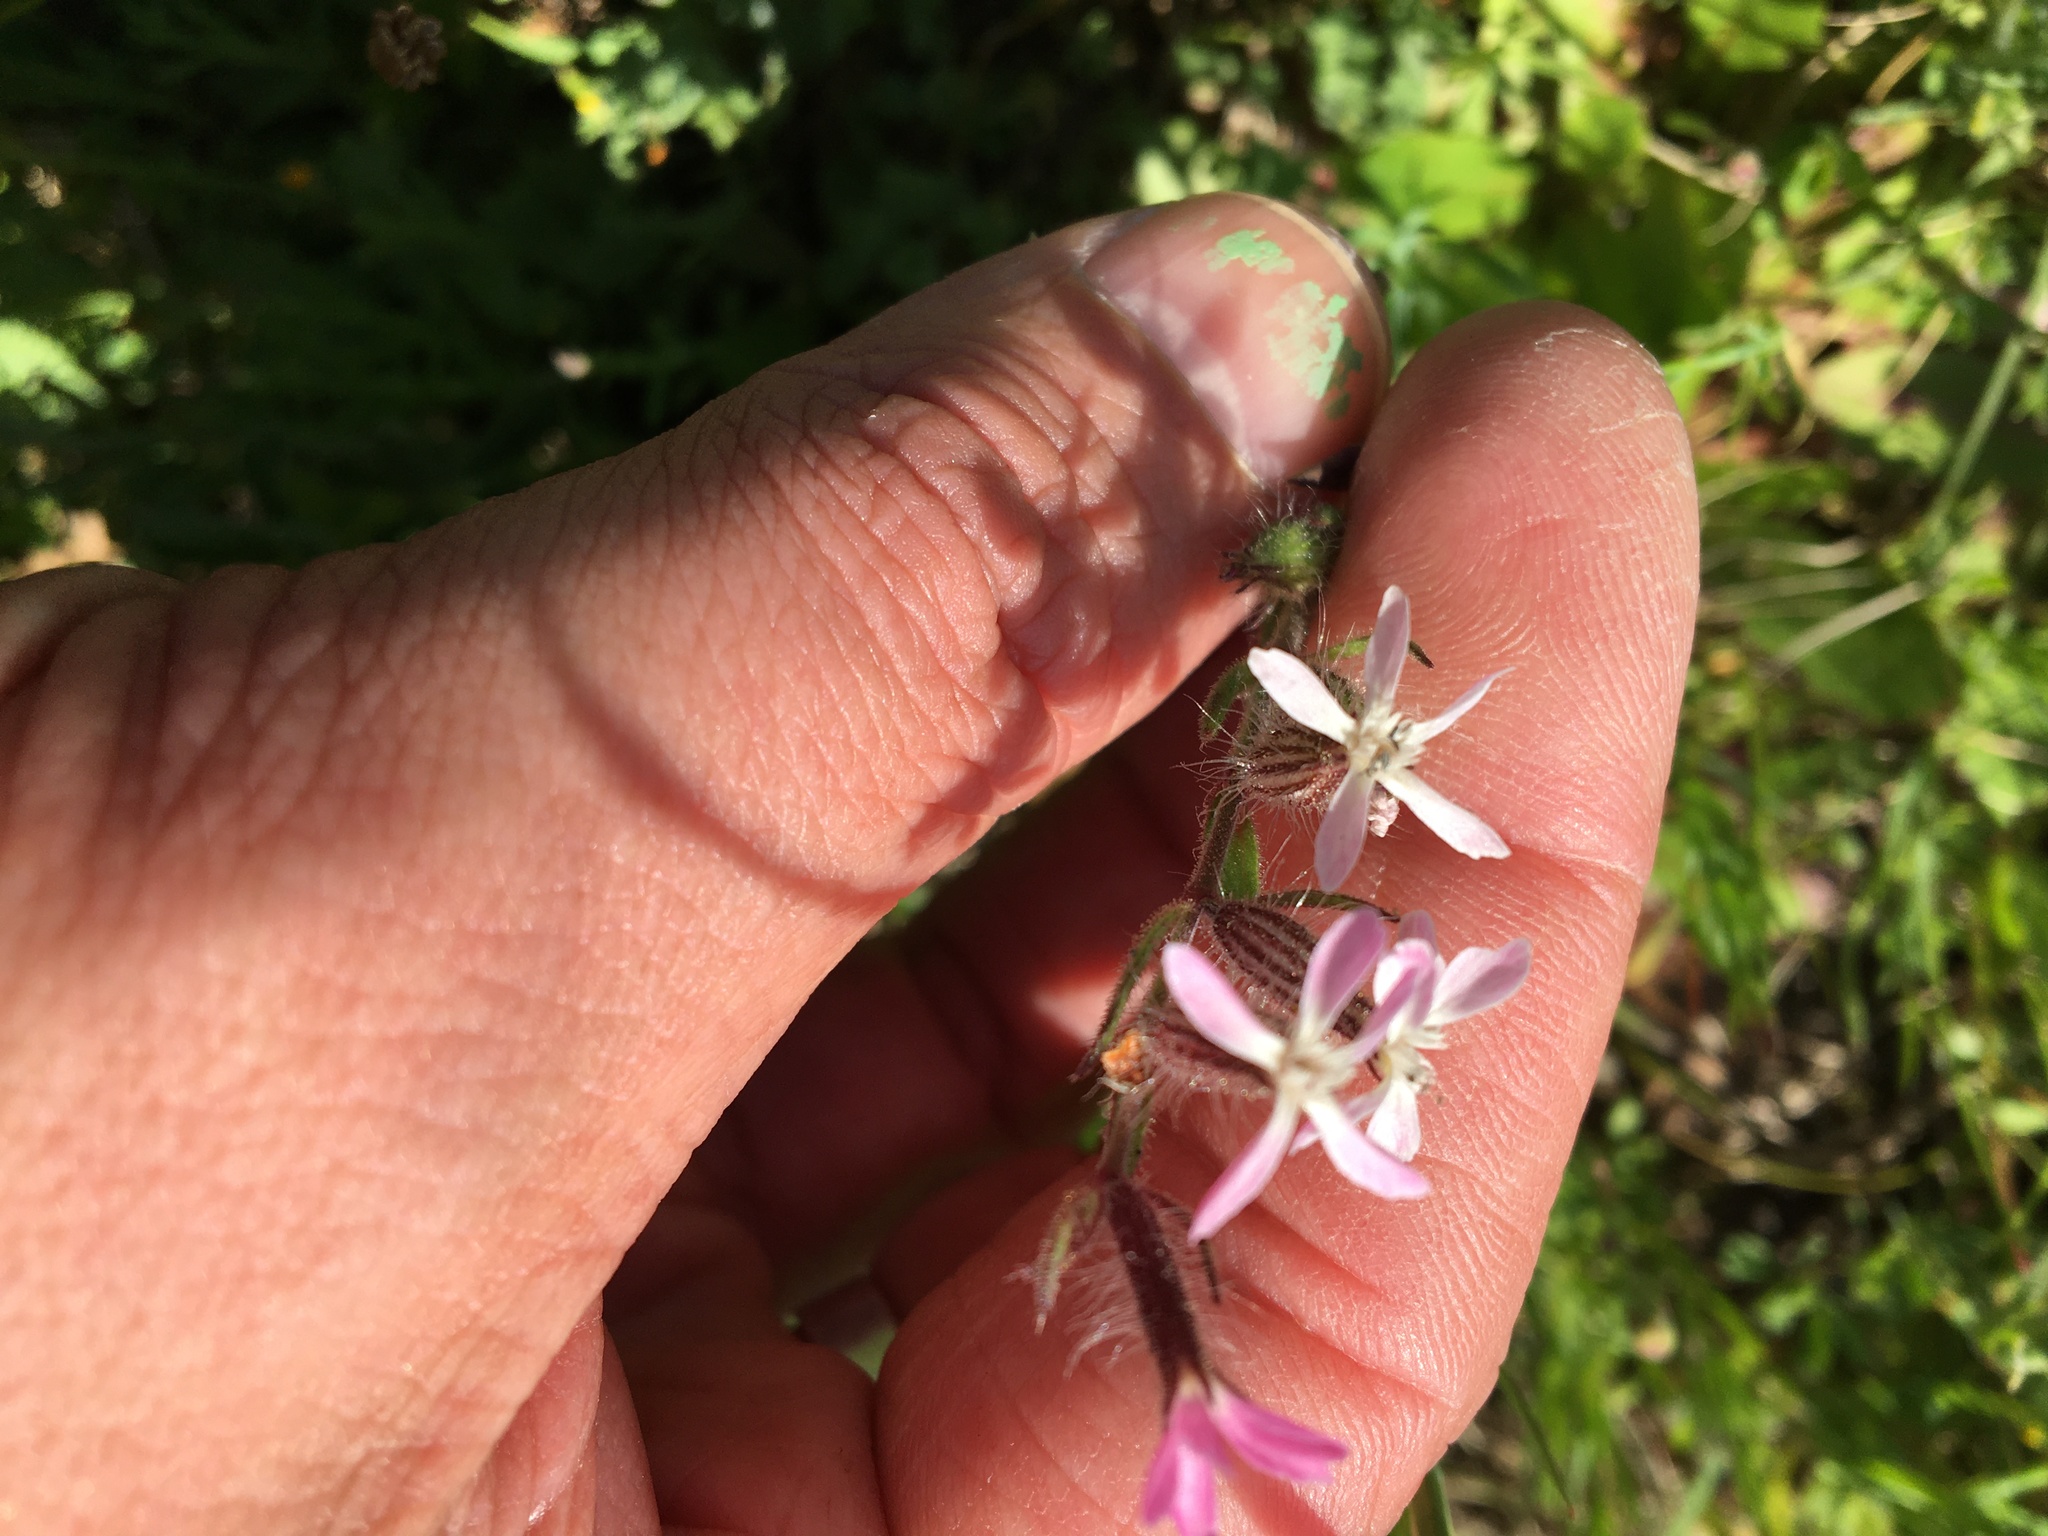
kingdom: Plantae
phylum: Tracheophyta
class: Magnoliopsida
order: Caryophyllales
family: Caryophyllaceae
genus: Silene
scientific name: Silene gallica
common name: Small-flowered catchfly
